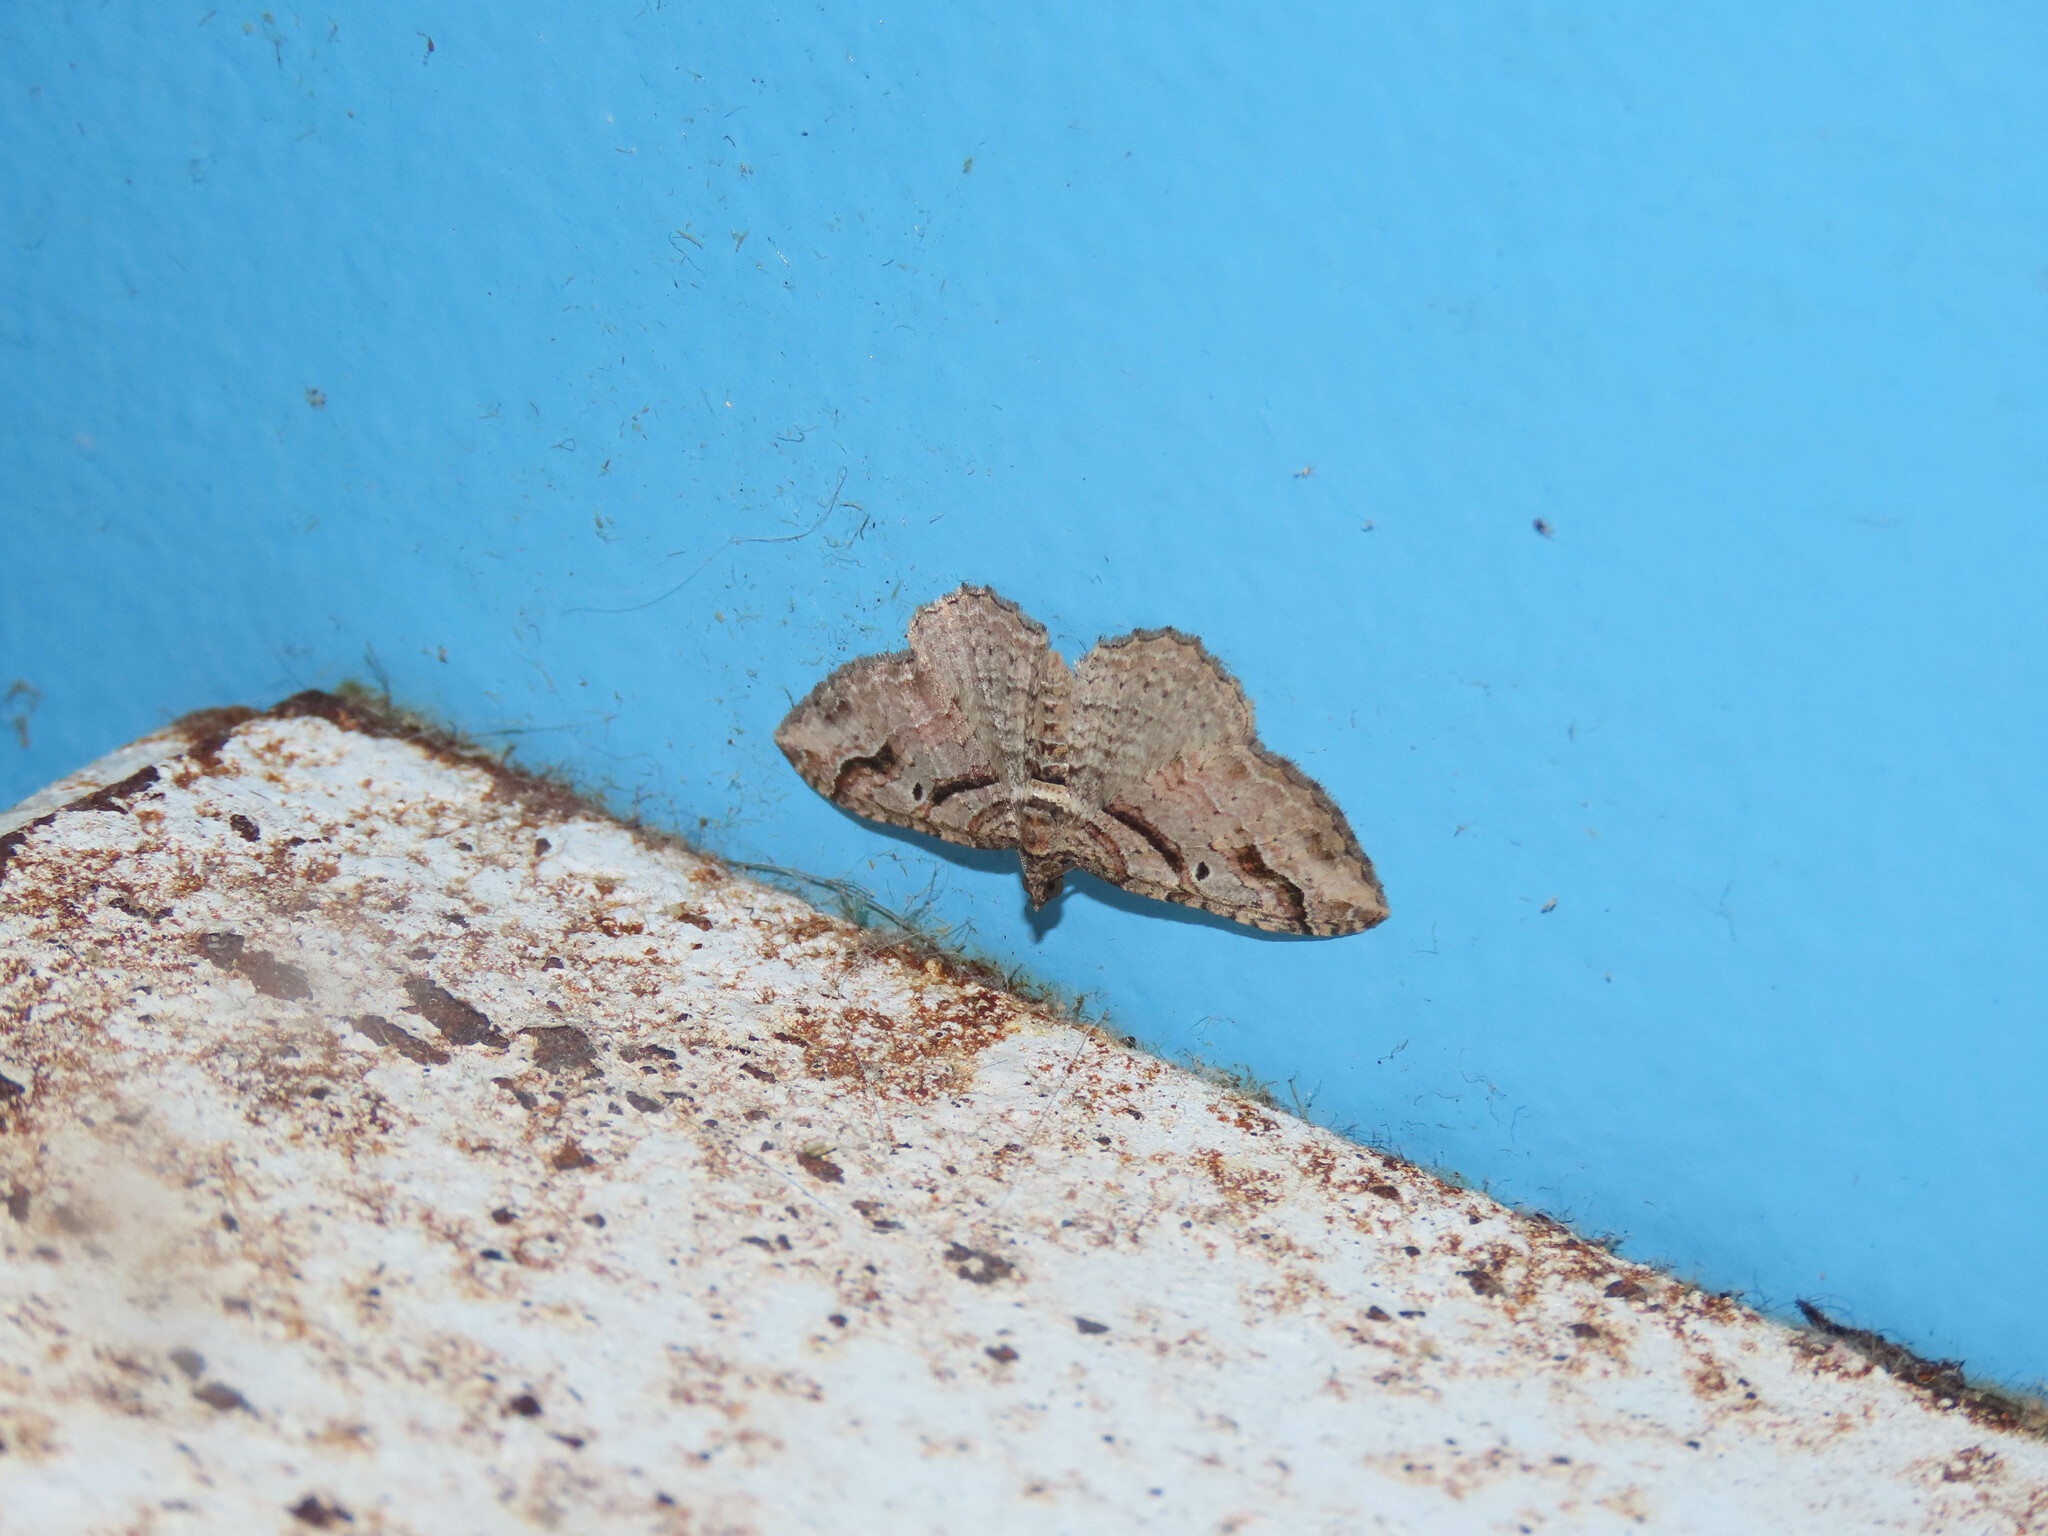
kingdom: Animalia
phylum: Arthropoda
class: Insecta
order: Lepidoptera
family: Geometridae
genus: Costaconvexa
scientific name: Costaconvexa centrostrigaria
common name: Bent-line carpet
